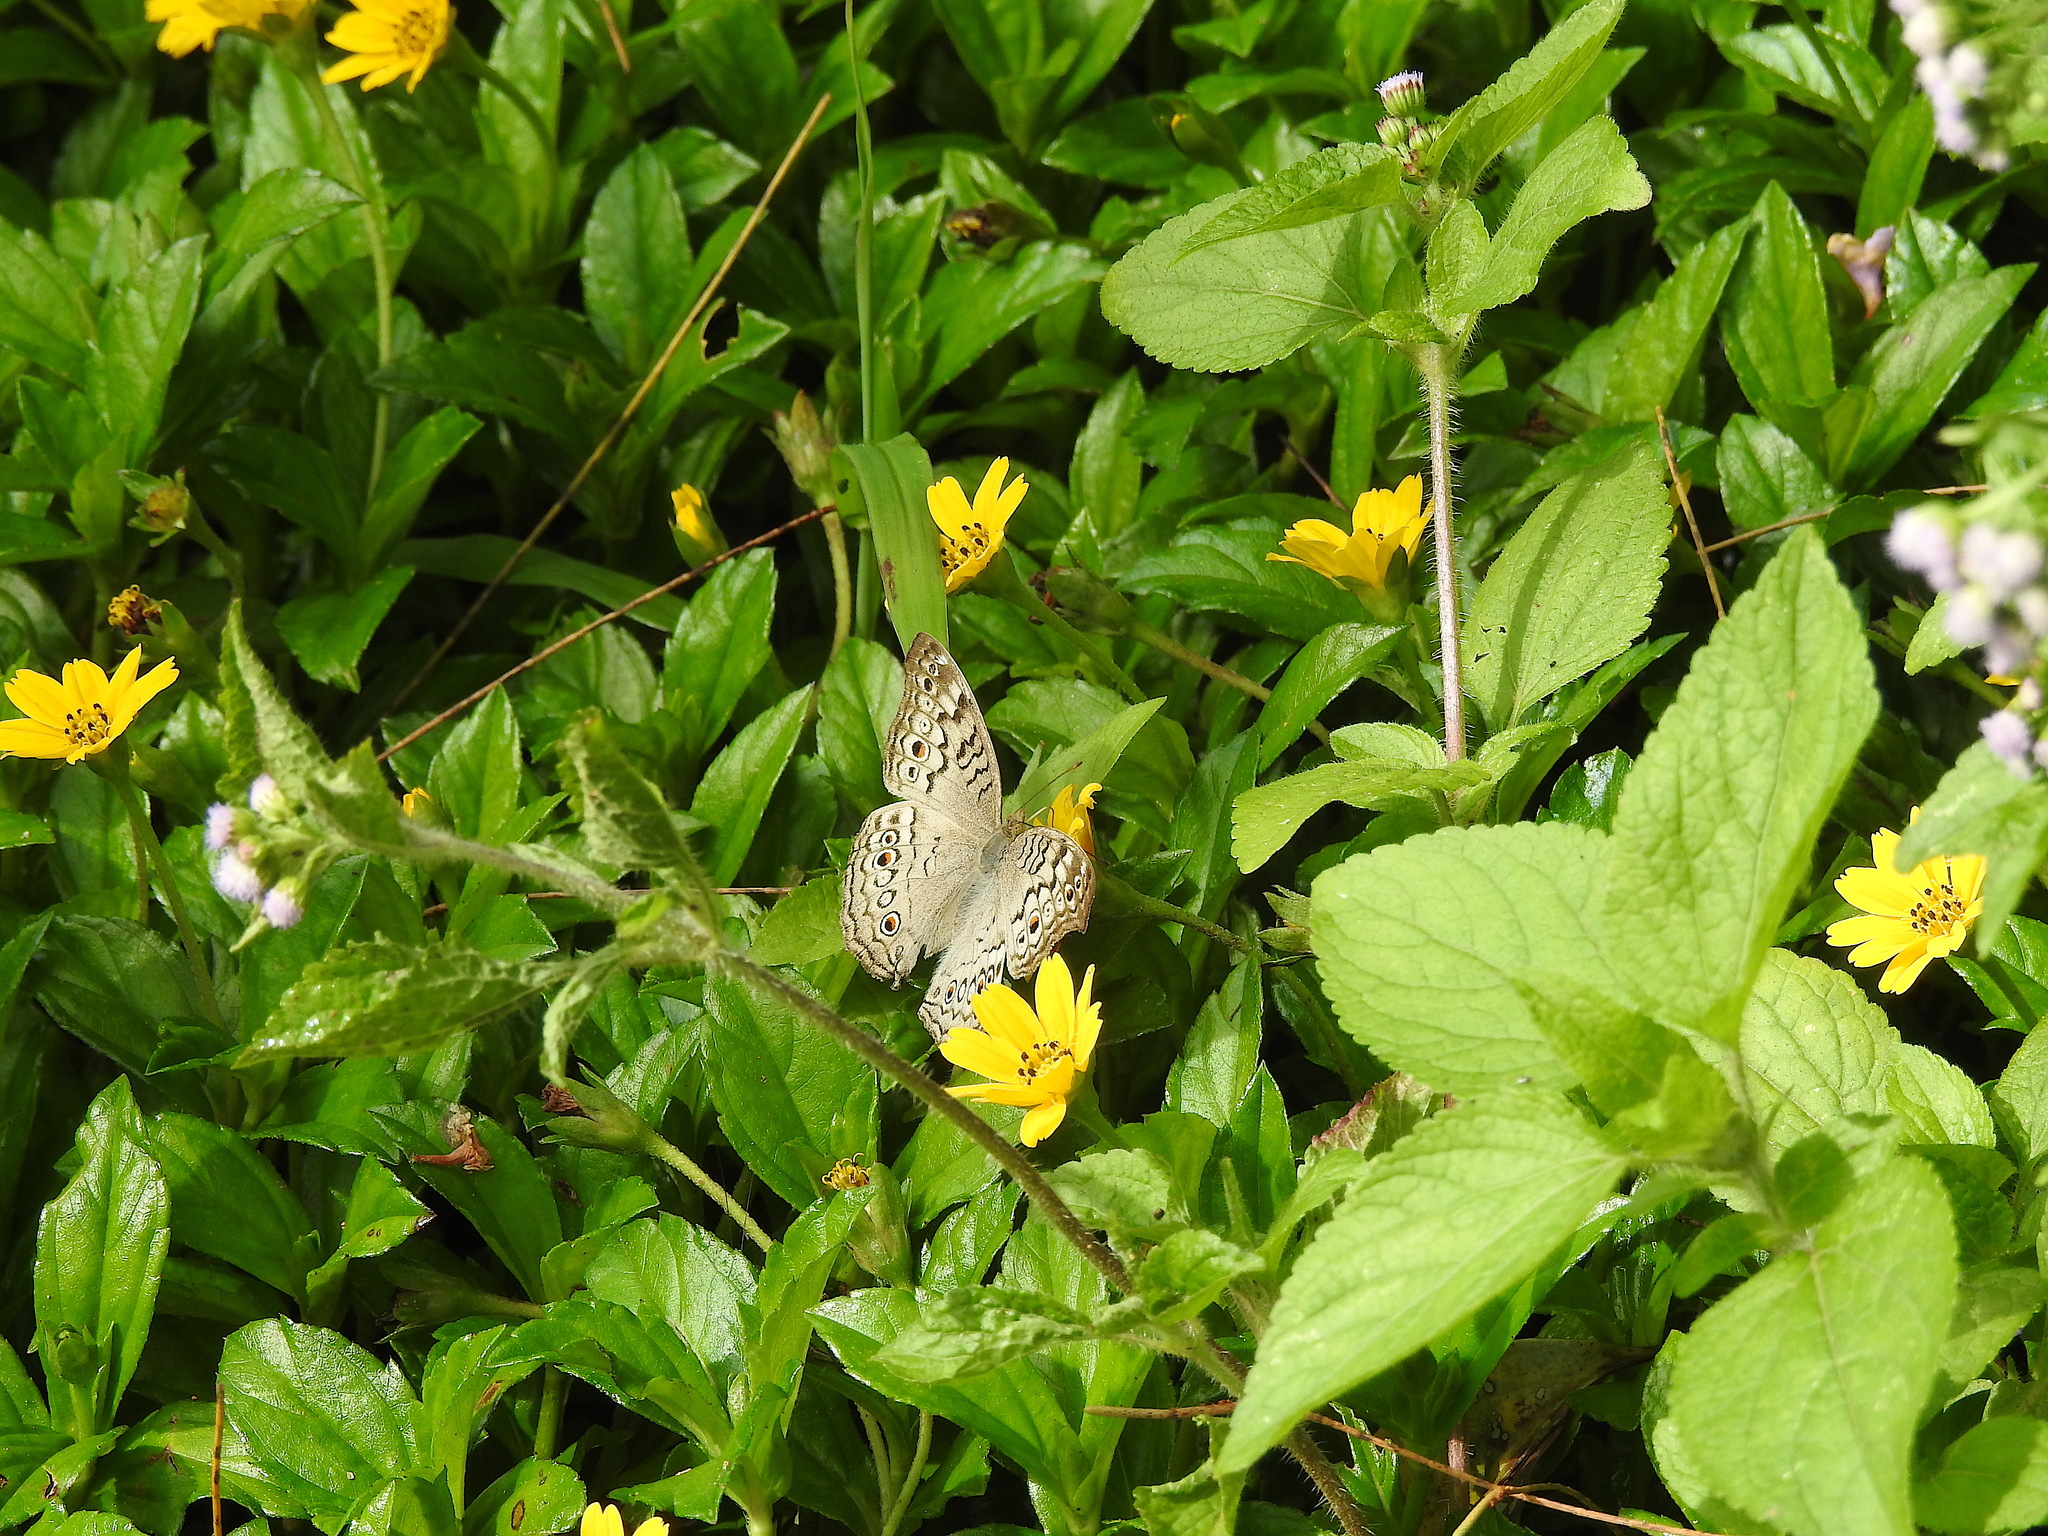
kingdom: Animalia
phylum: Arthropoda
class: Insecta
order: Lepidoptera
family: Nymphalidae
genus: Junonia
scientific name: Junonia atlites
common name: Grey pansy
